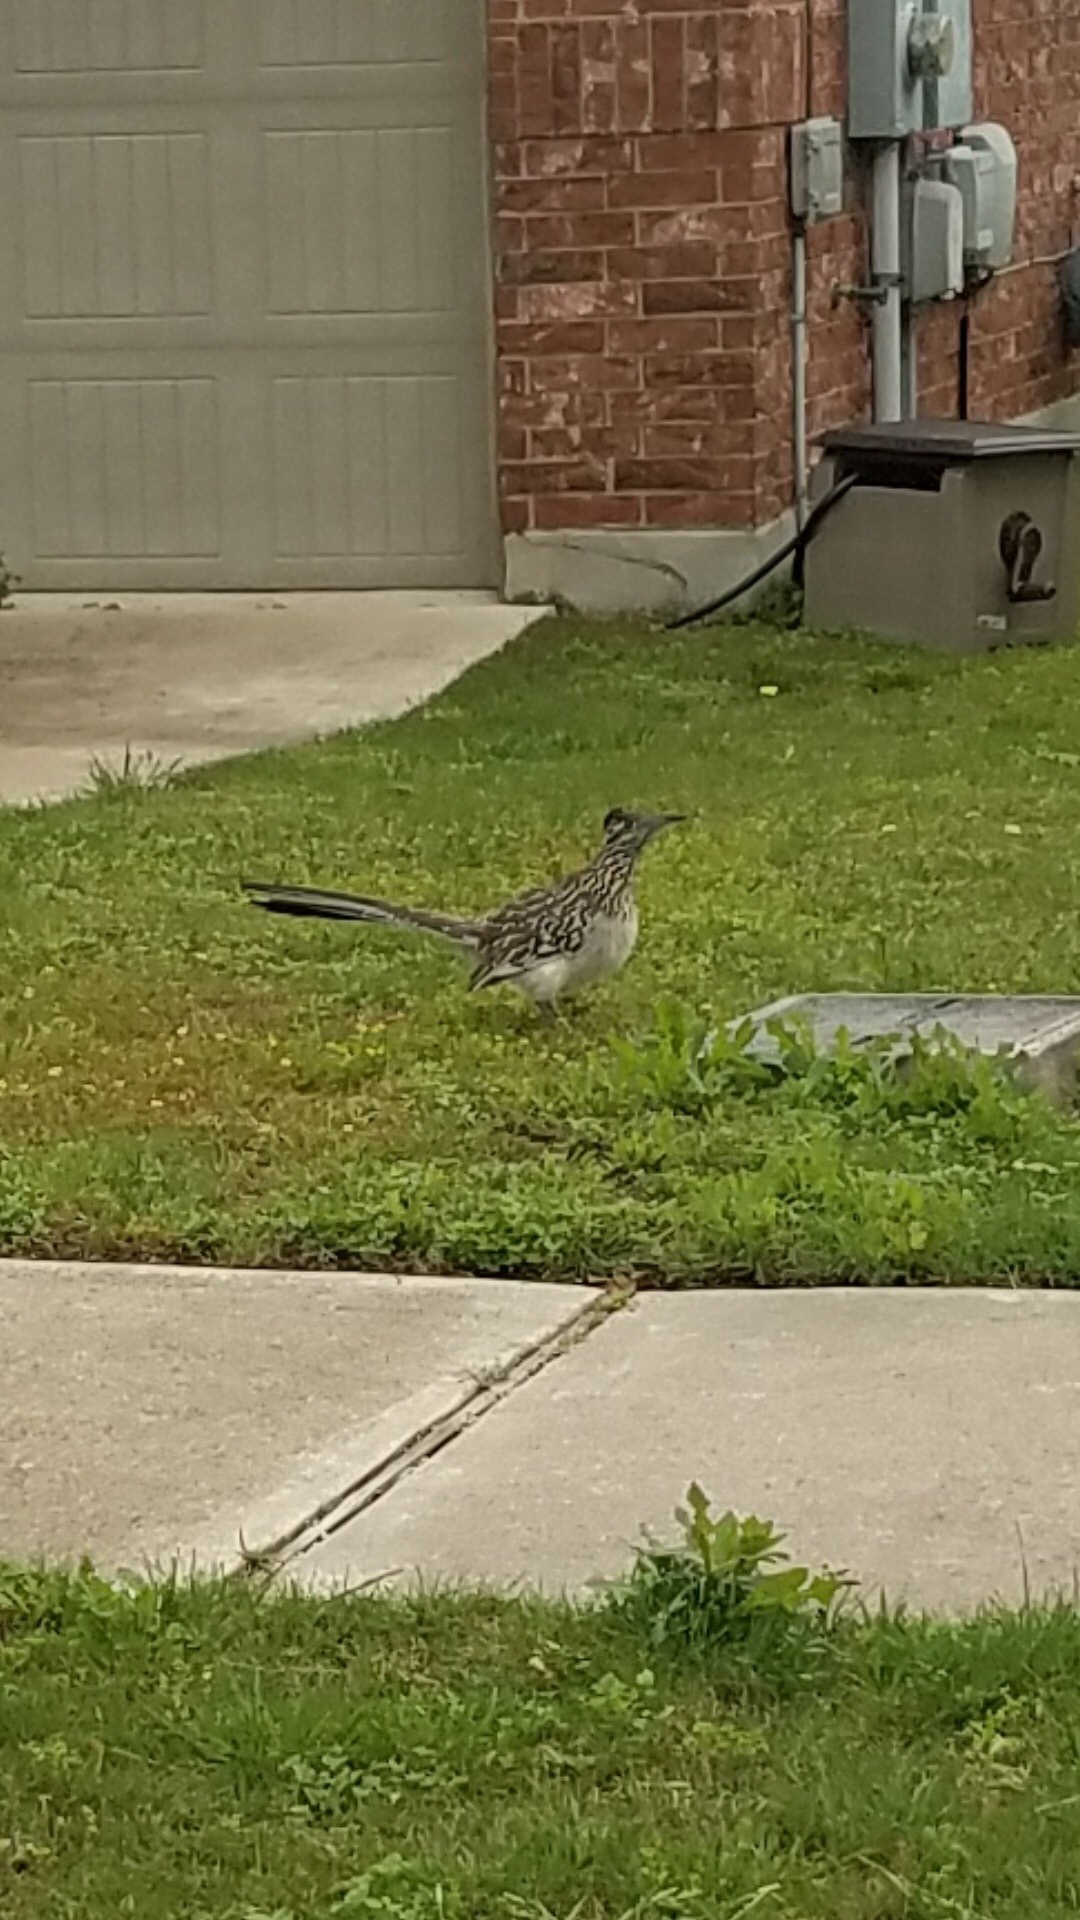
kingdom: Animalia
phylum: Chordata
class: Aves
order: Cuculiformes
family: Cuculidae
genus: Geococcyx
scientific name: Geococcyx californianus
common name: Greater roadrunner
